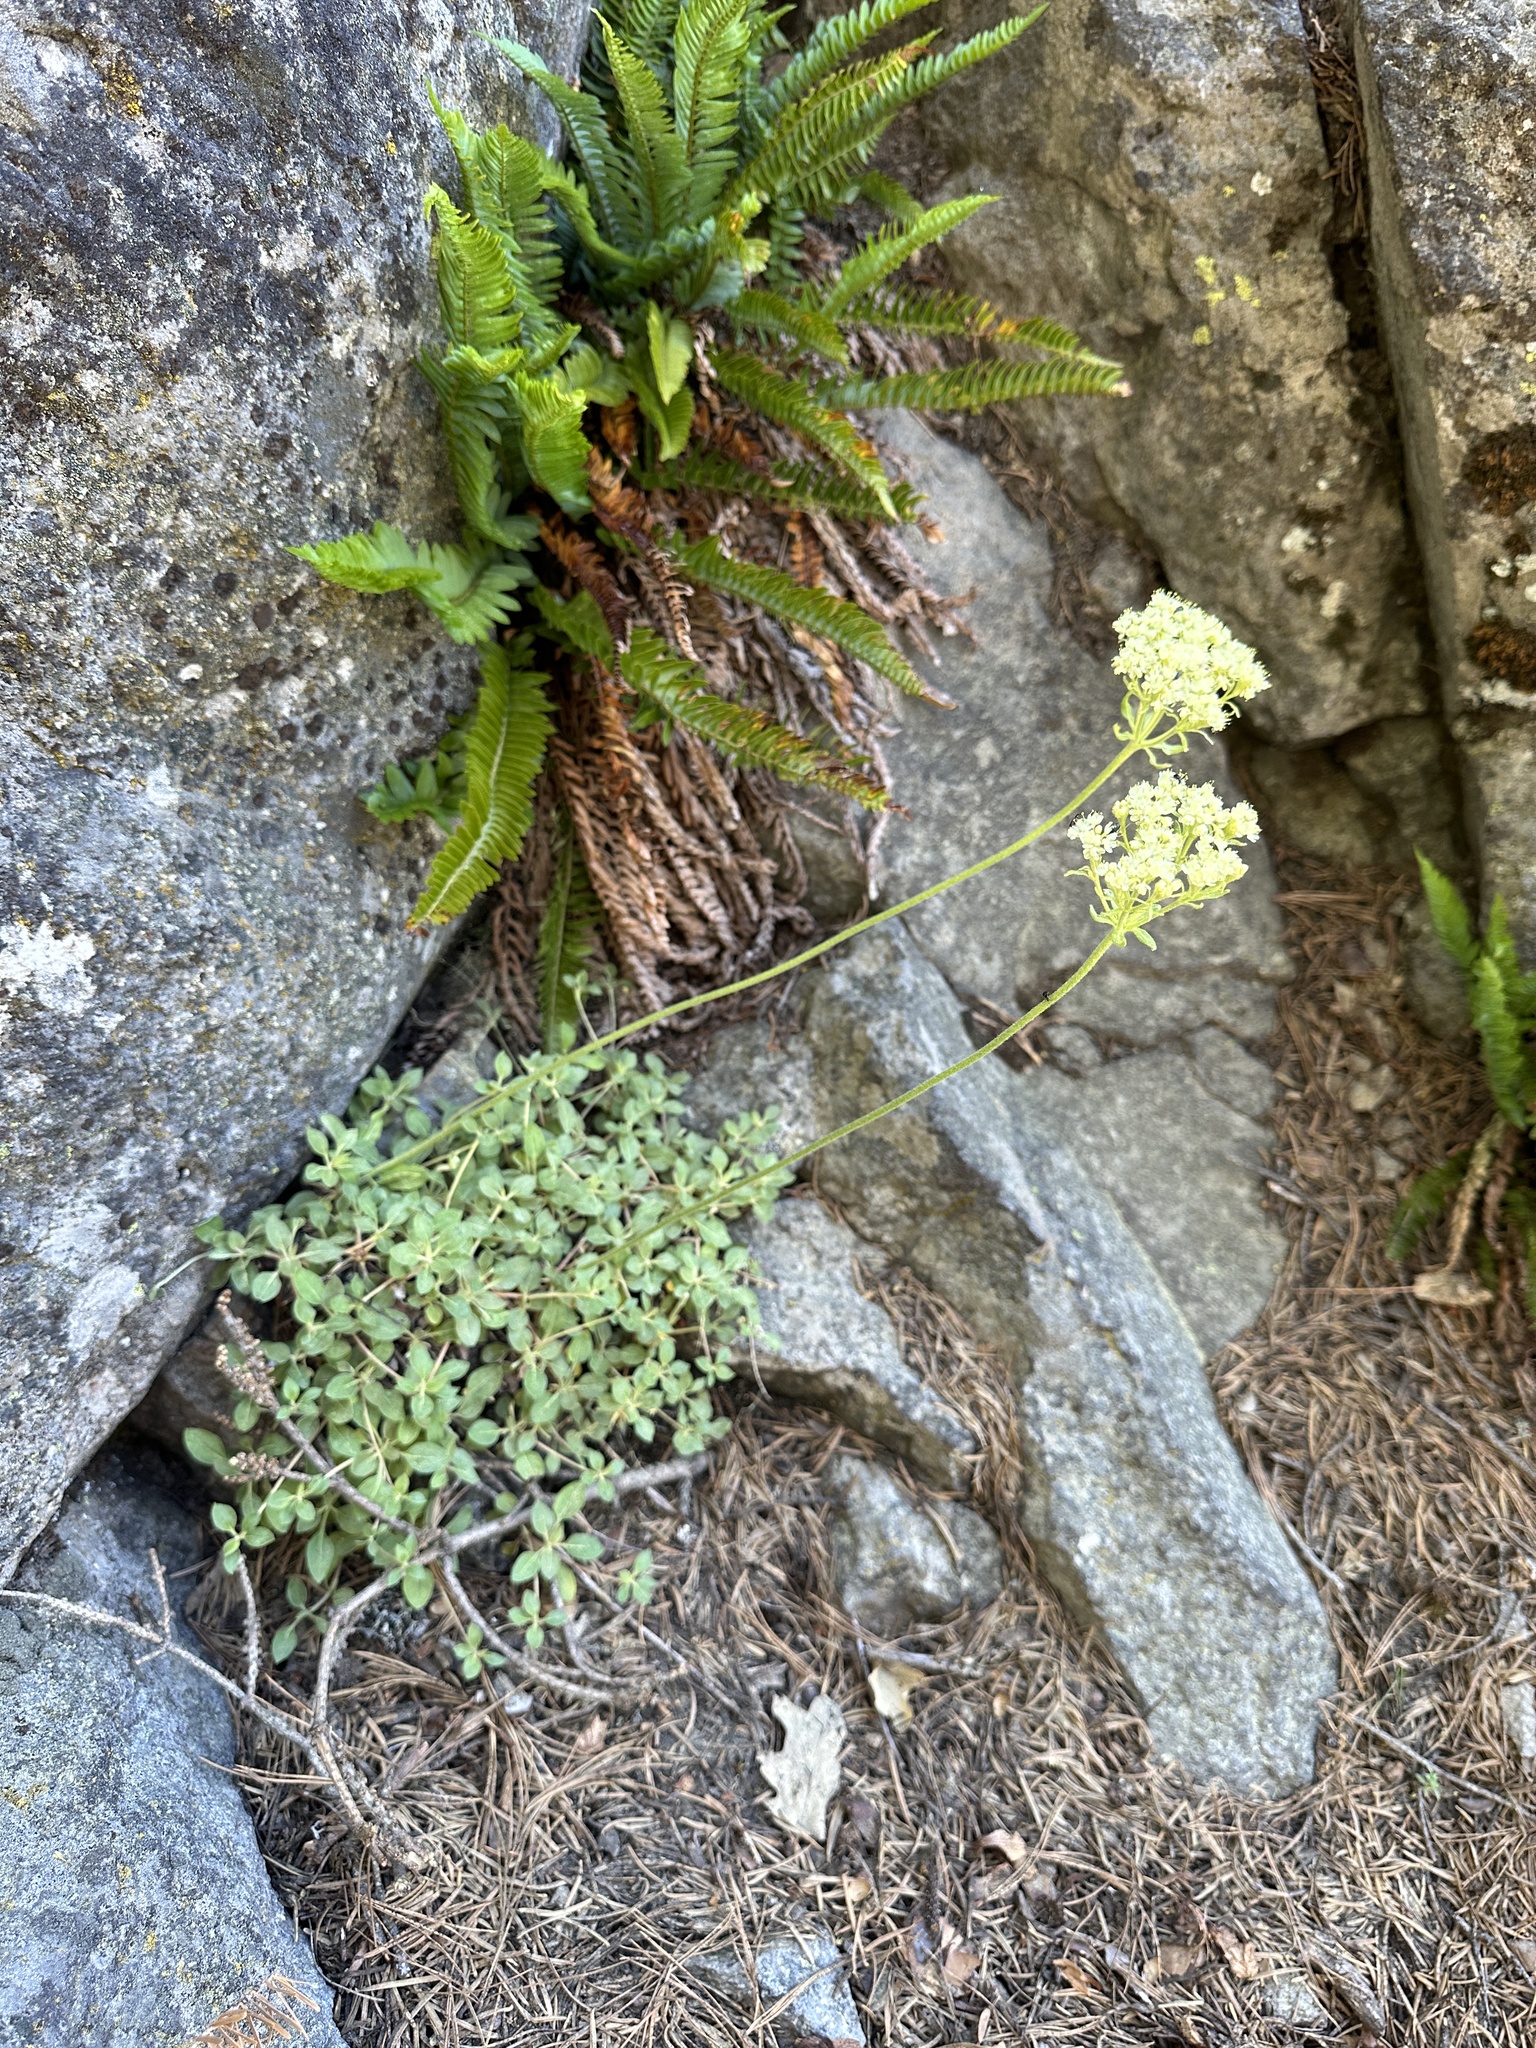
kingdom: Plantae
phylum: Tracheophyta
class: Magnoliopsida
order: Caryophyllales
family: Polygonaceae
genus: Eriogonum
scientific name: Eriogonum ursinum
